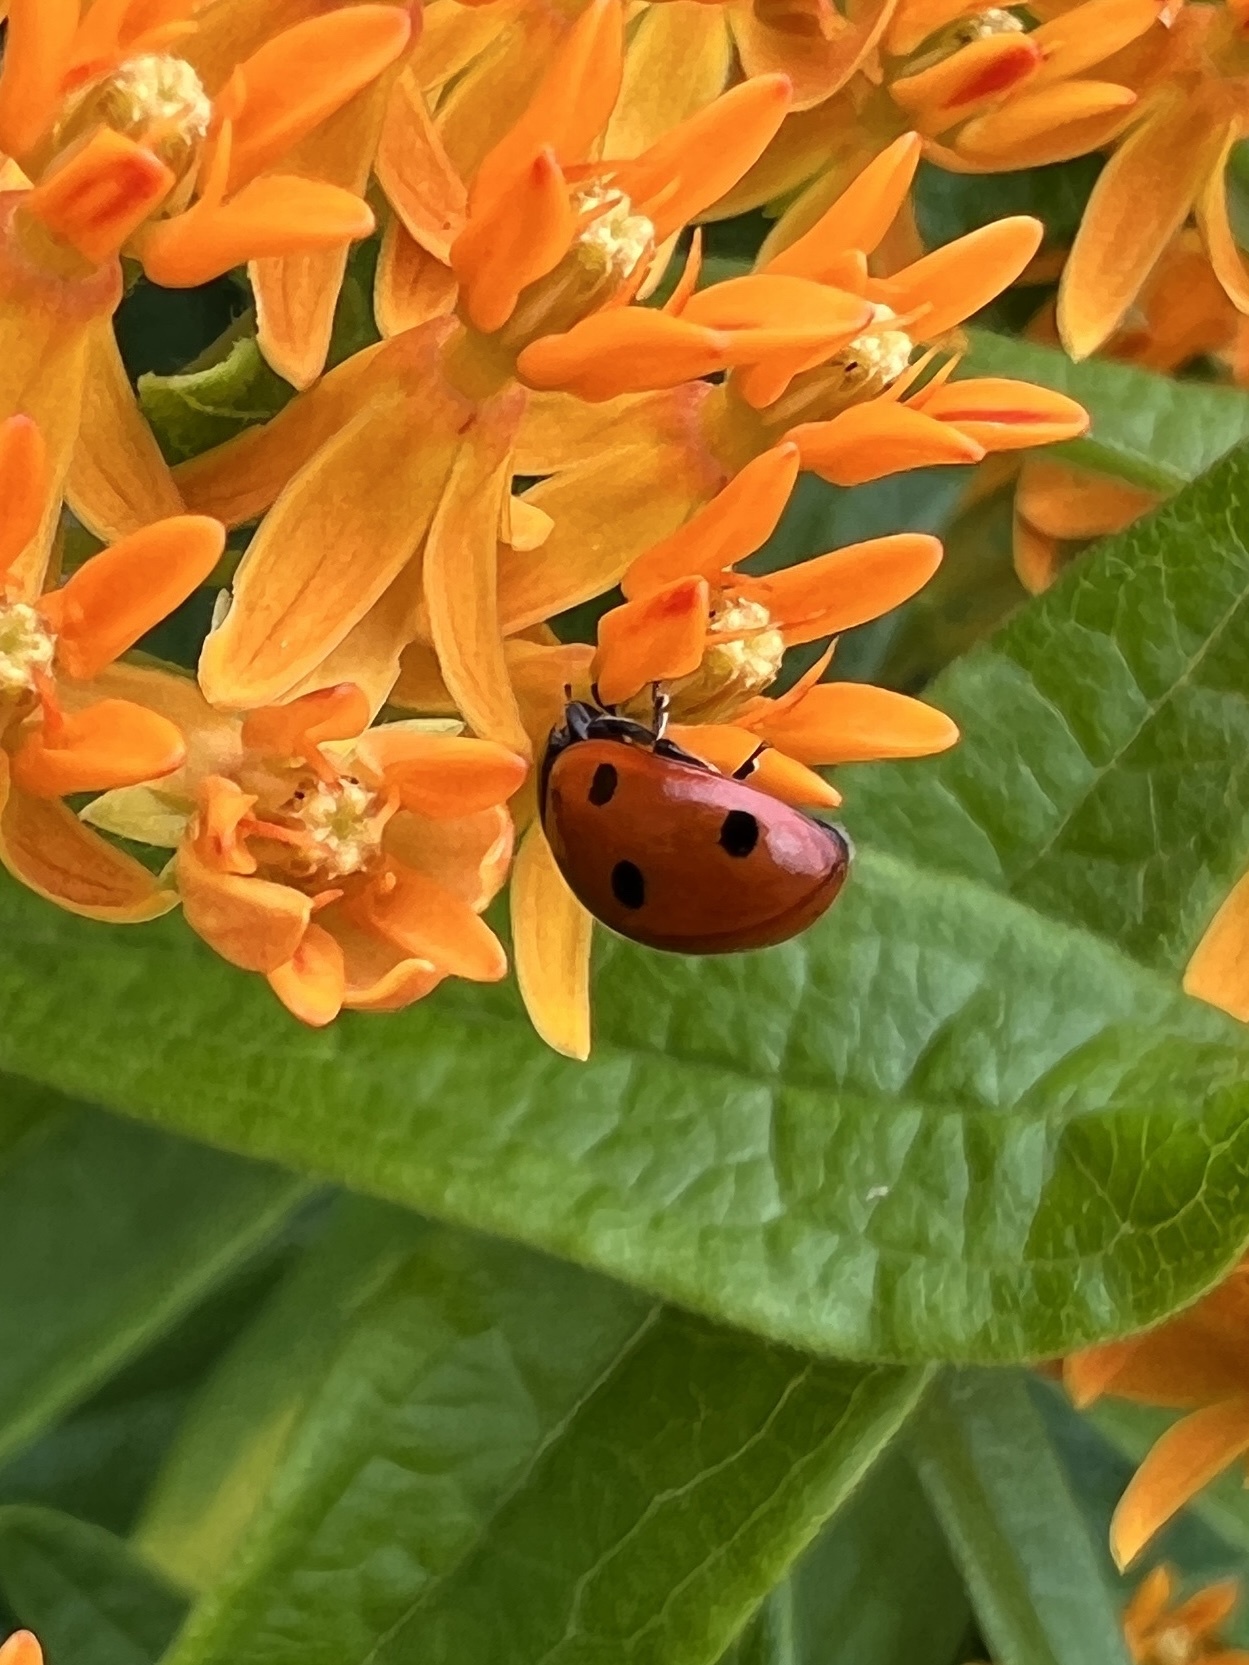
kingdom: Animalia
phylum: Arthropoda
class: Insecta
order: Coleoptera
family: Coccinellidae
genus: Coccinella
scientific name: Coccinella septempunctata
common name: Sevenspotted lady beetle
